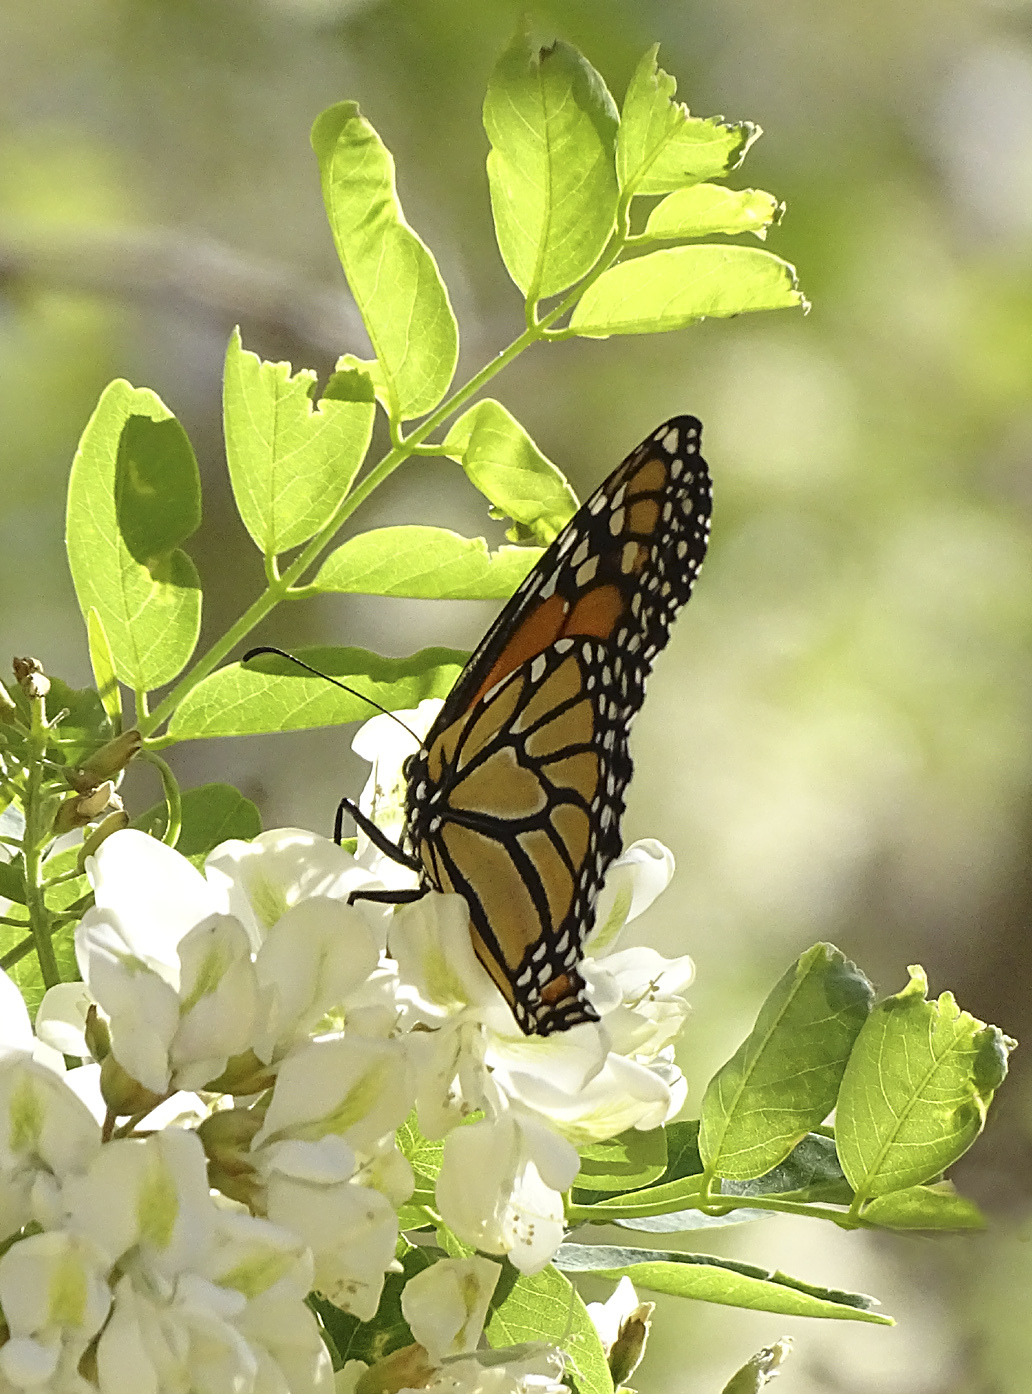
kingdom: Animalia
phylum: Arthropoda
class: Insecta
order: Lepidoptera
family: Nymphalidae
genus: Danaus
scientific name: Danaus plexippus
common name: Monarch
